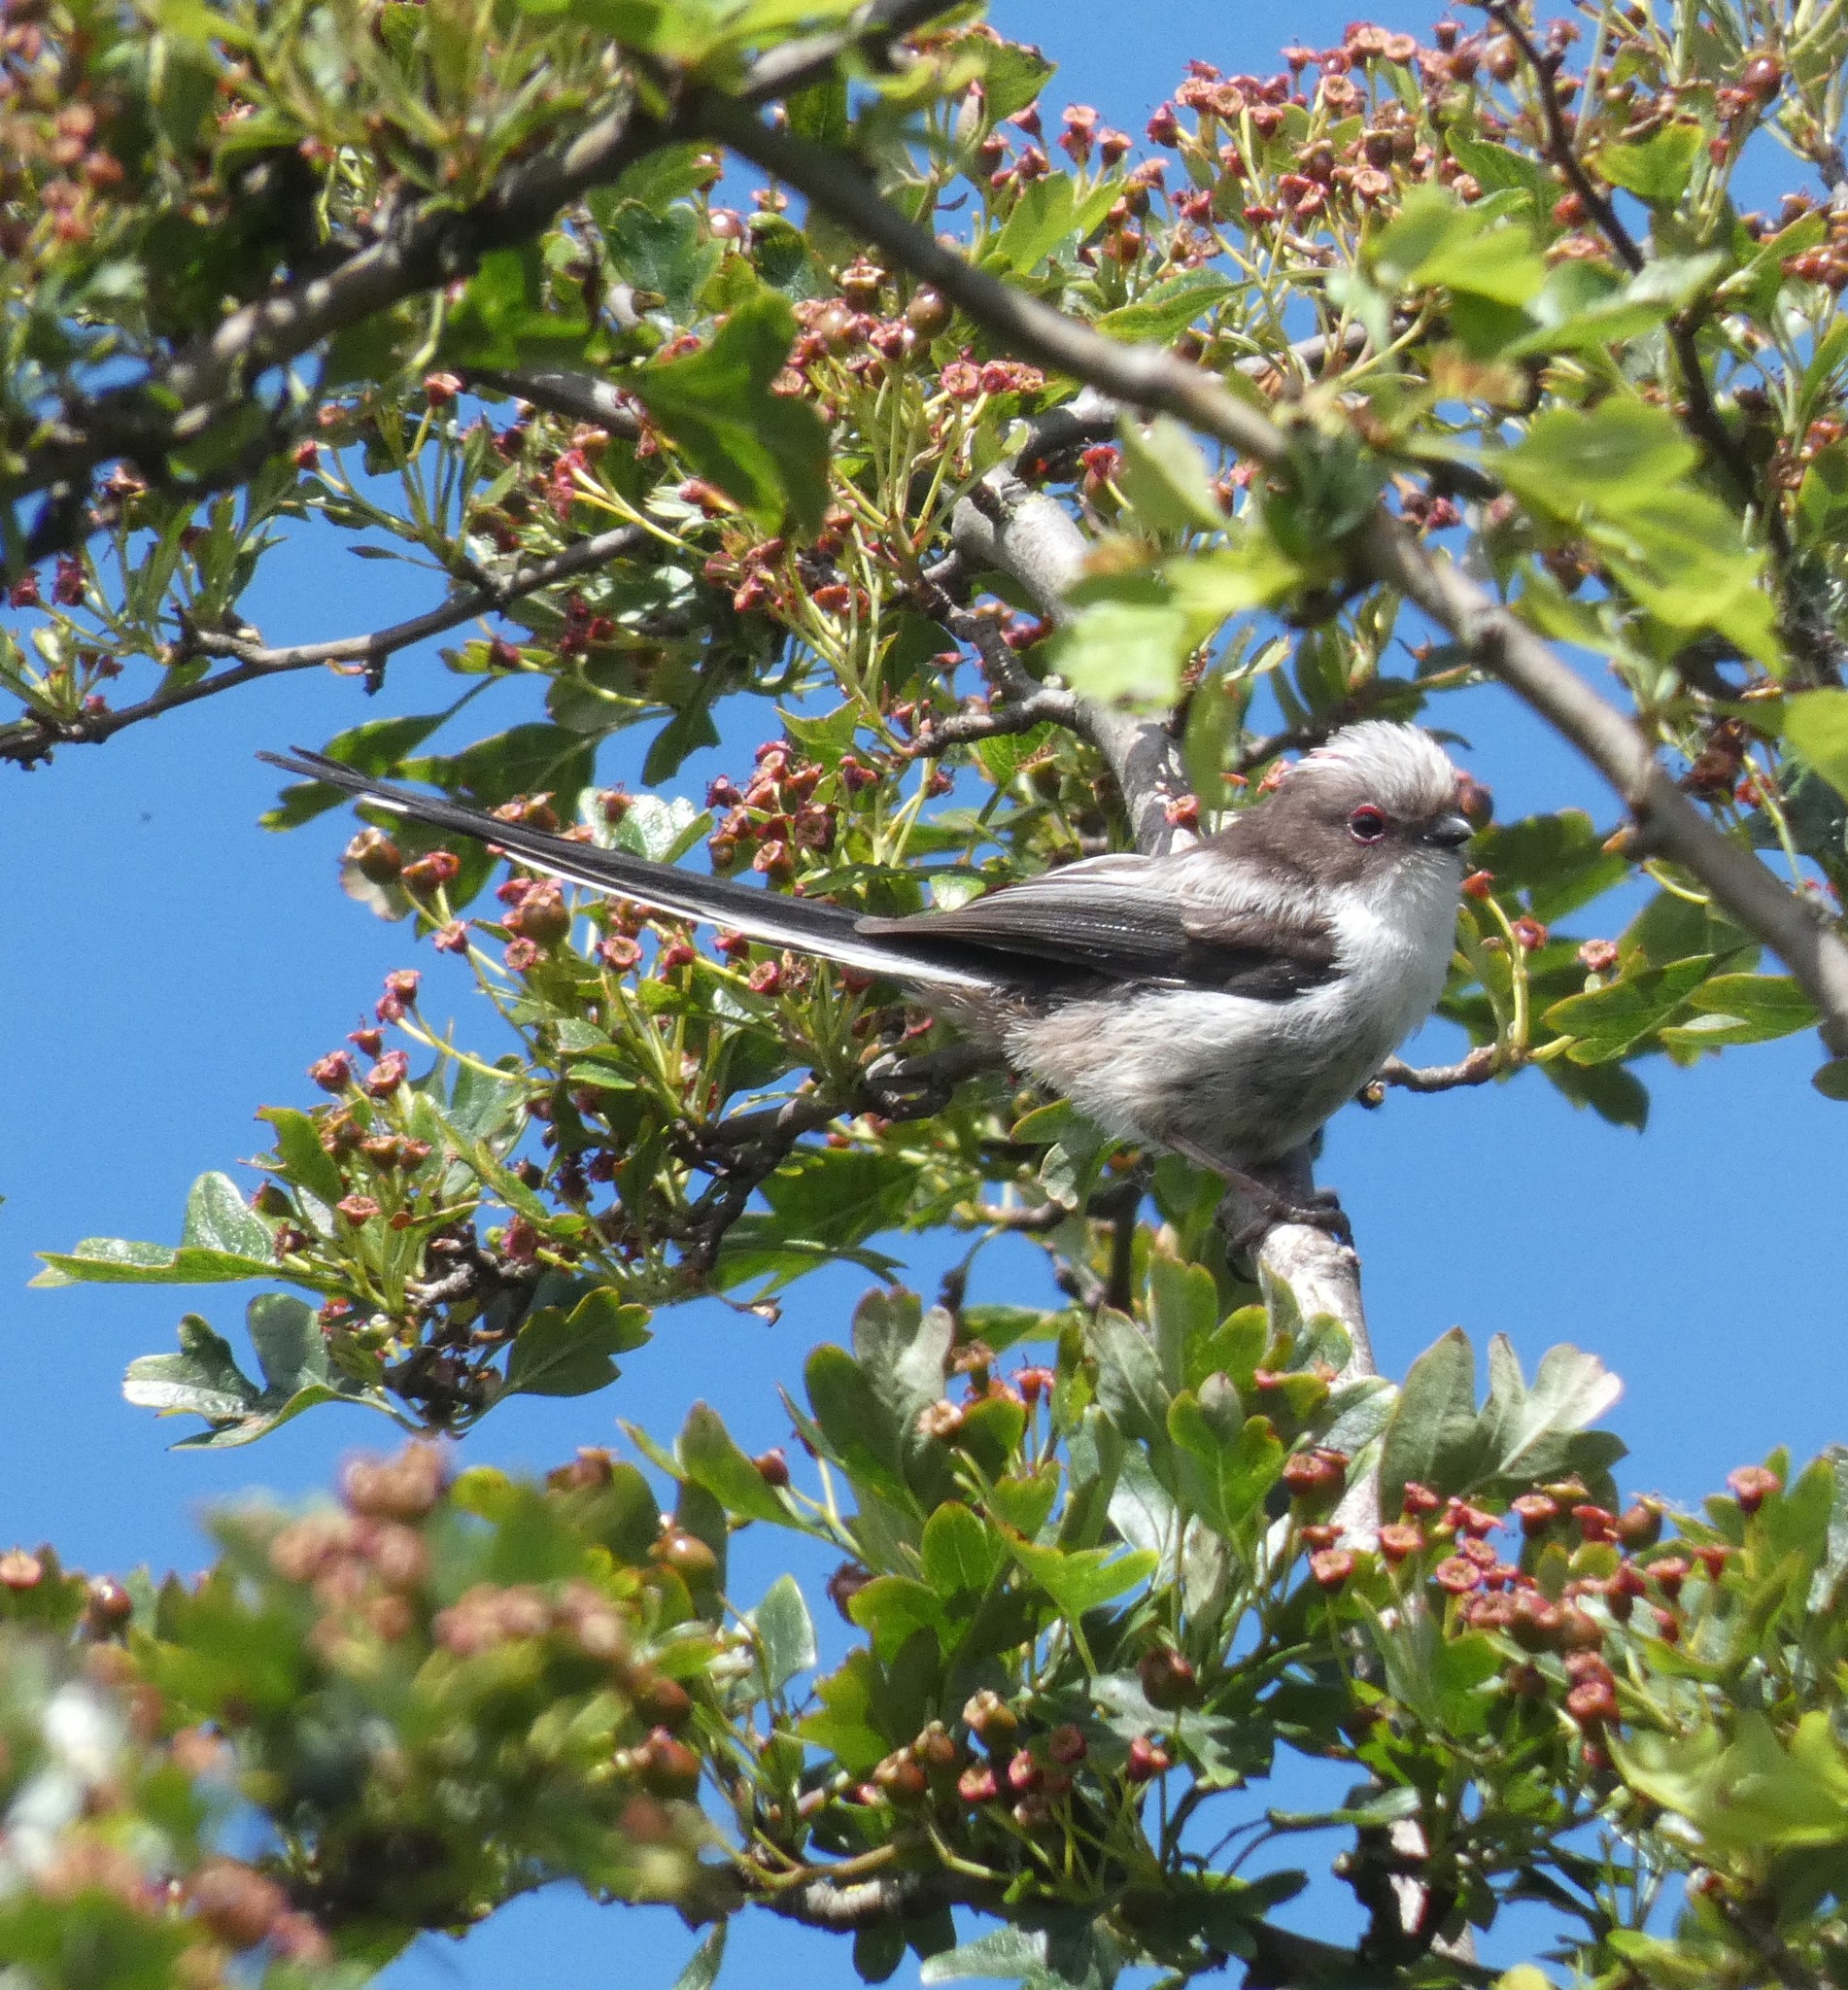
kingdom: Animalia
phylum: Chordata
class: Aves
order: Passeriformes
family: Aegithalidae
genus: Aegithalos
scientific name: Aegithalos caudatus
